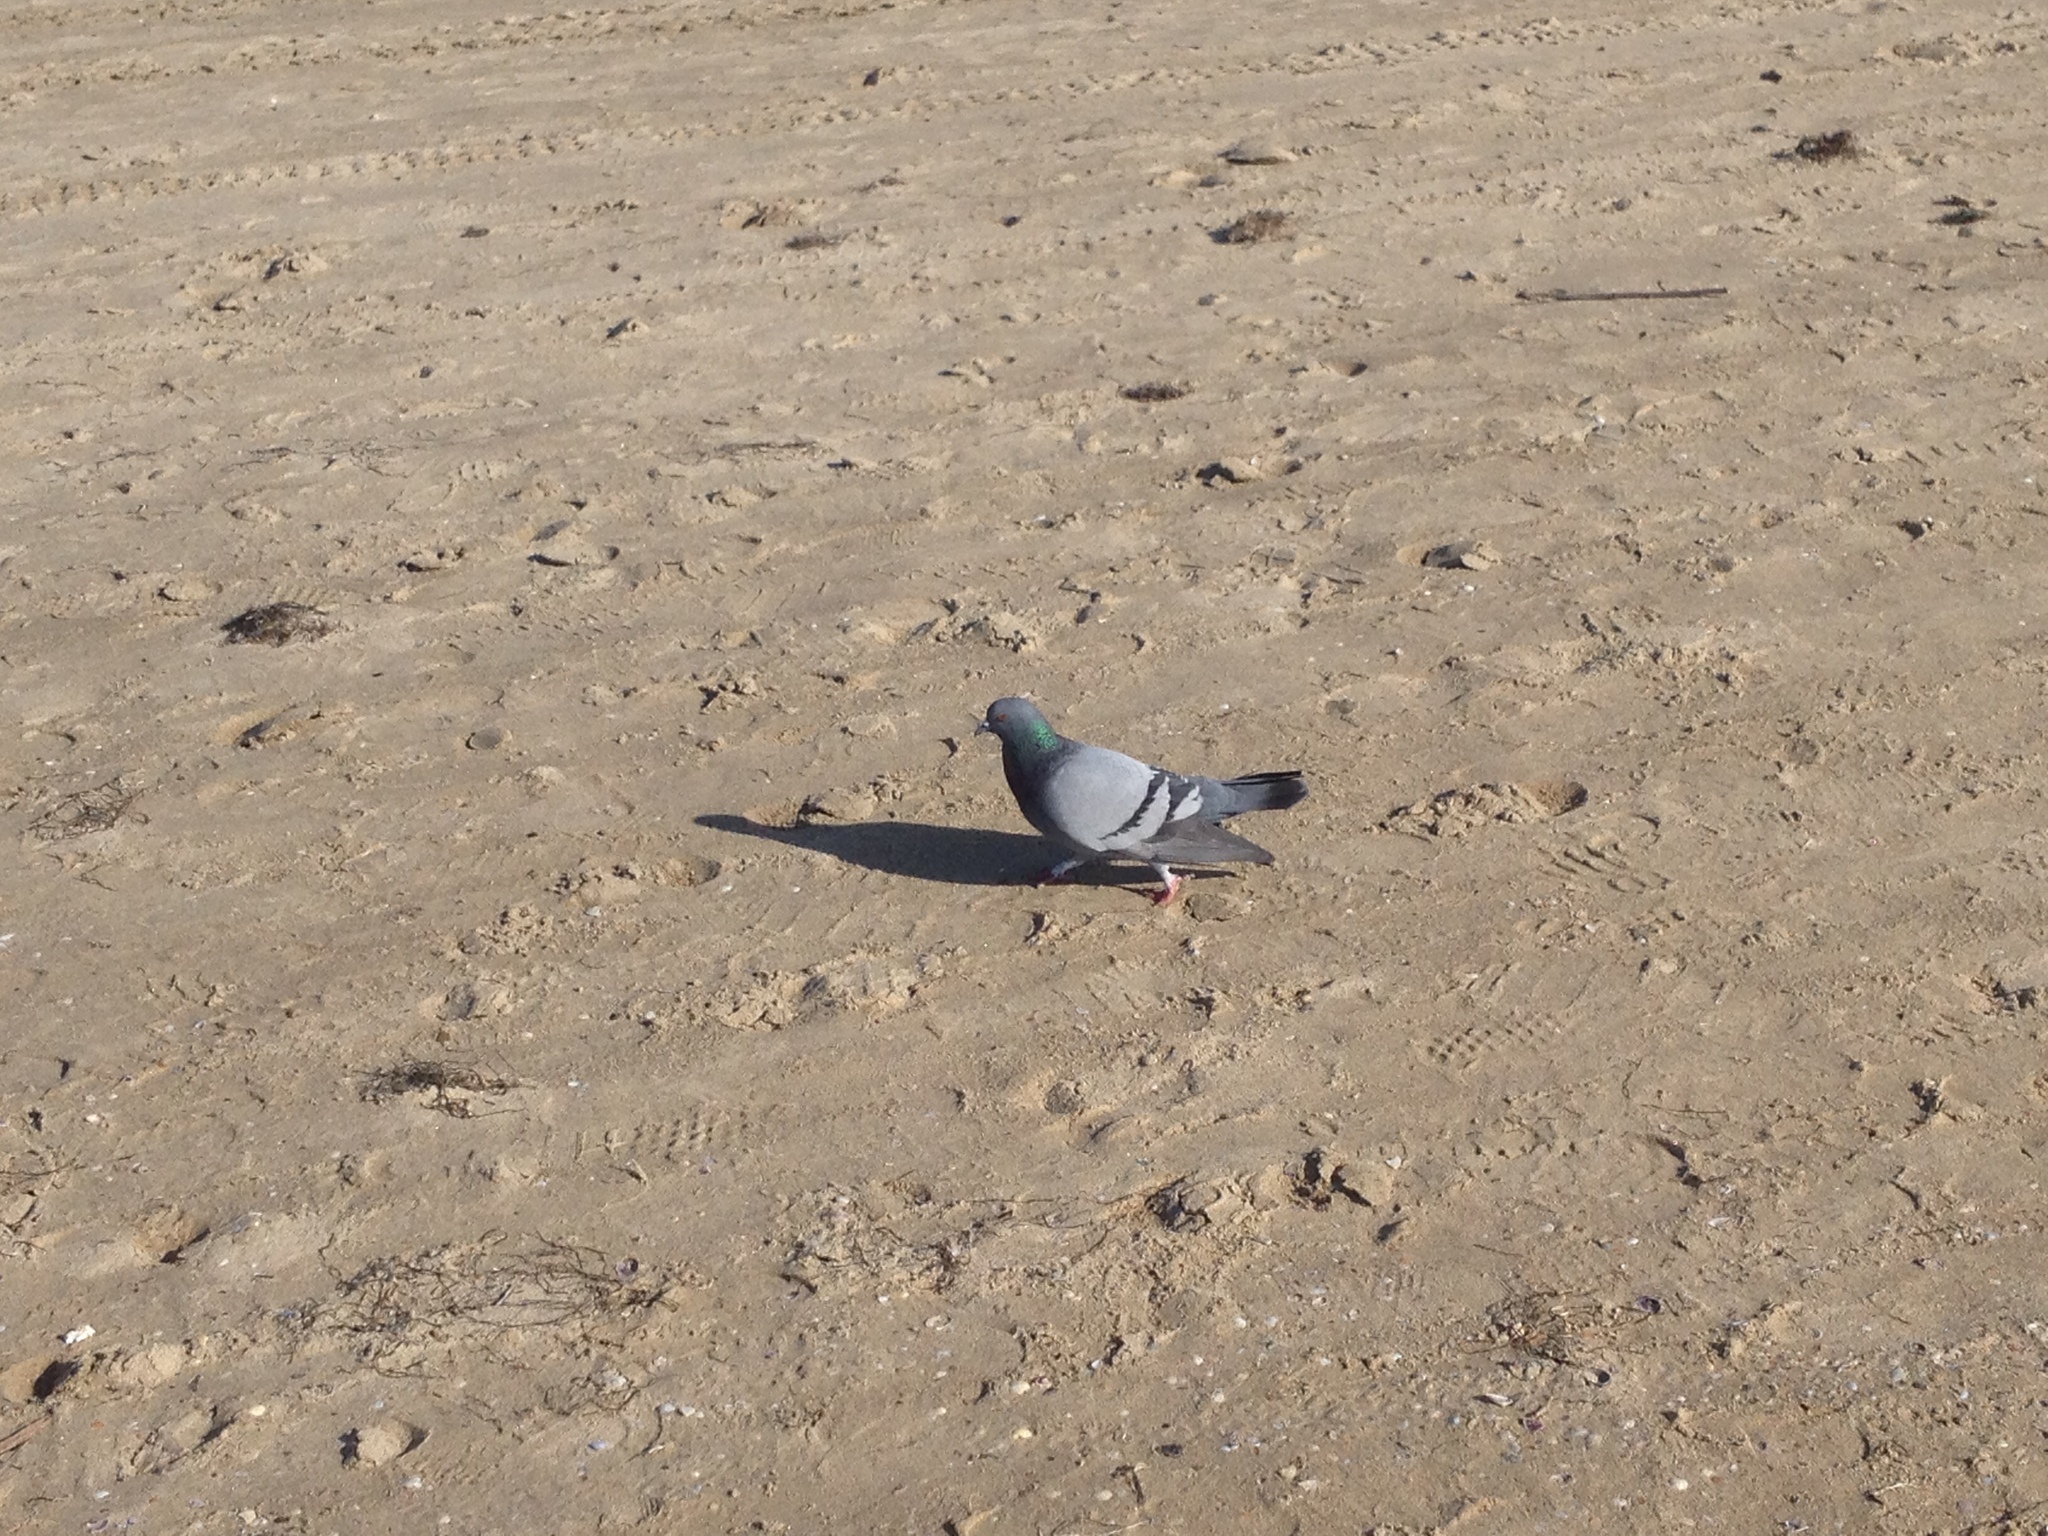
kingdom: Animalia
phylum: Chordata
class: Aves
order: Columbiformes
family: Columbidae
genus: Columba
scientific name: Columba livia
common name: Rock pigeon
